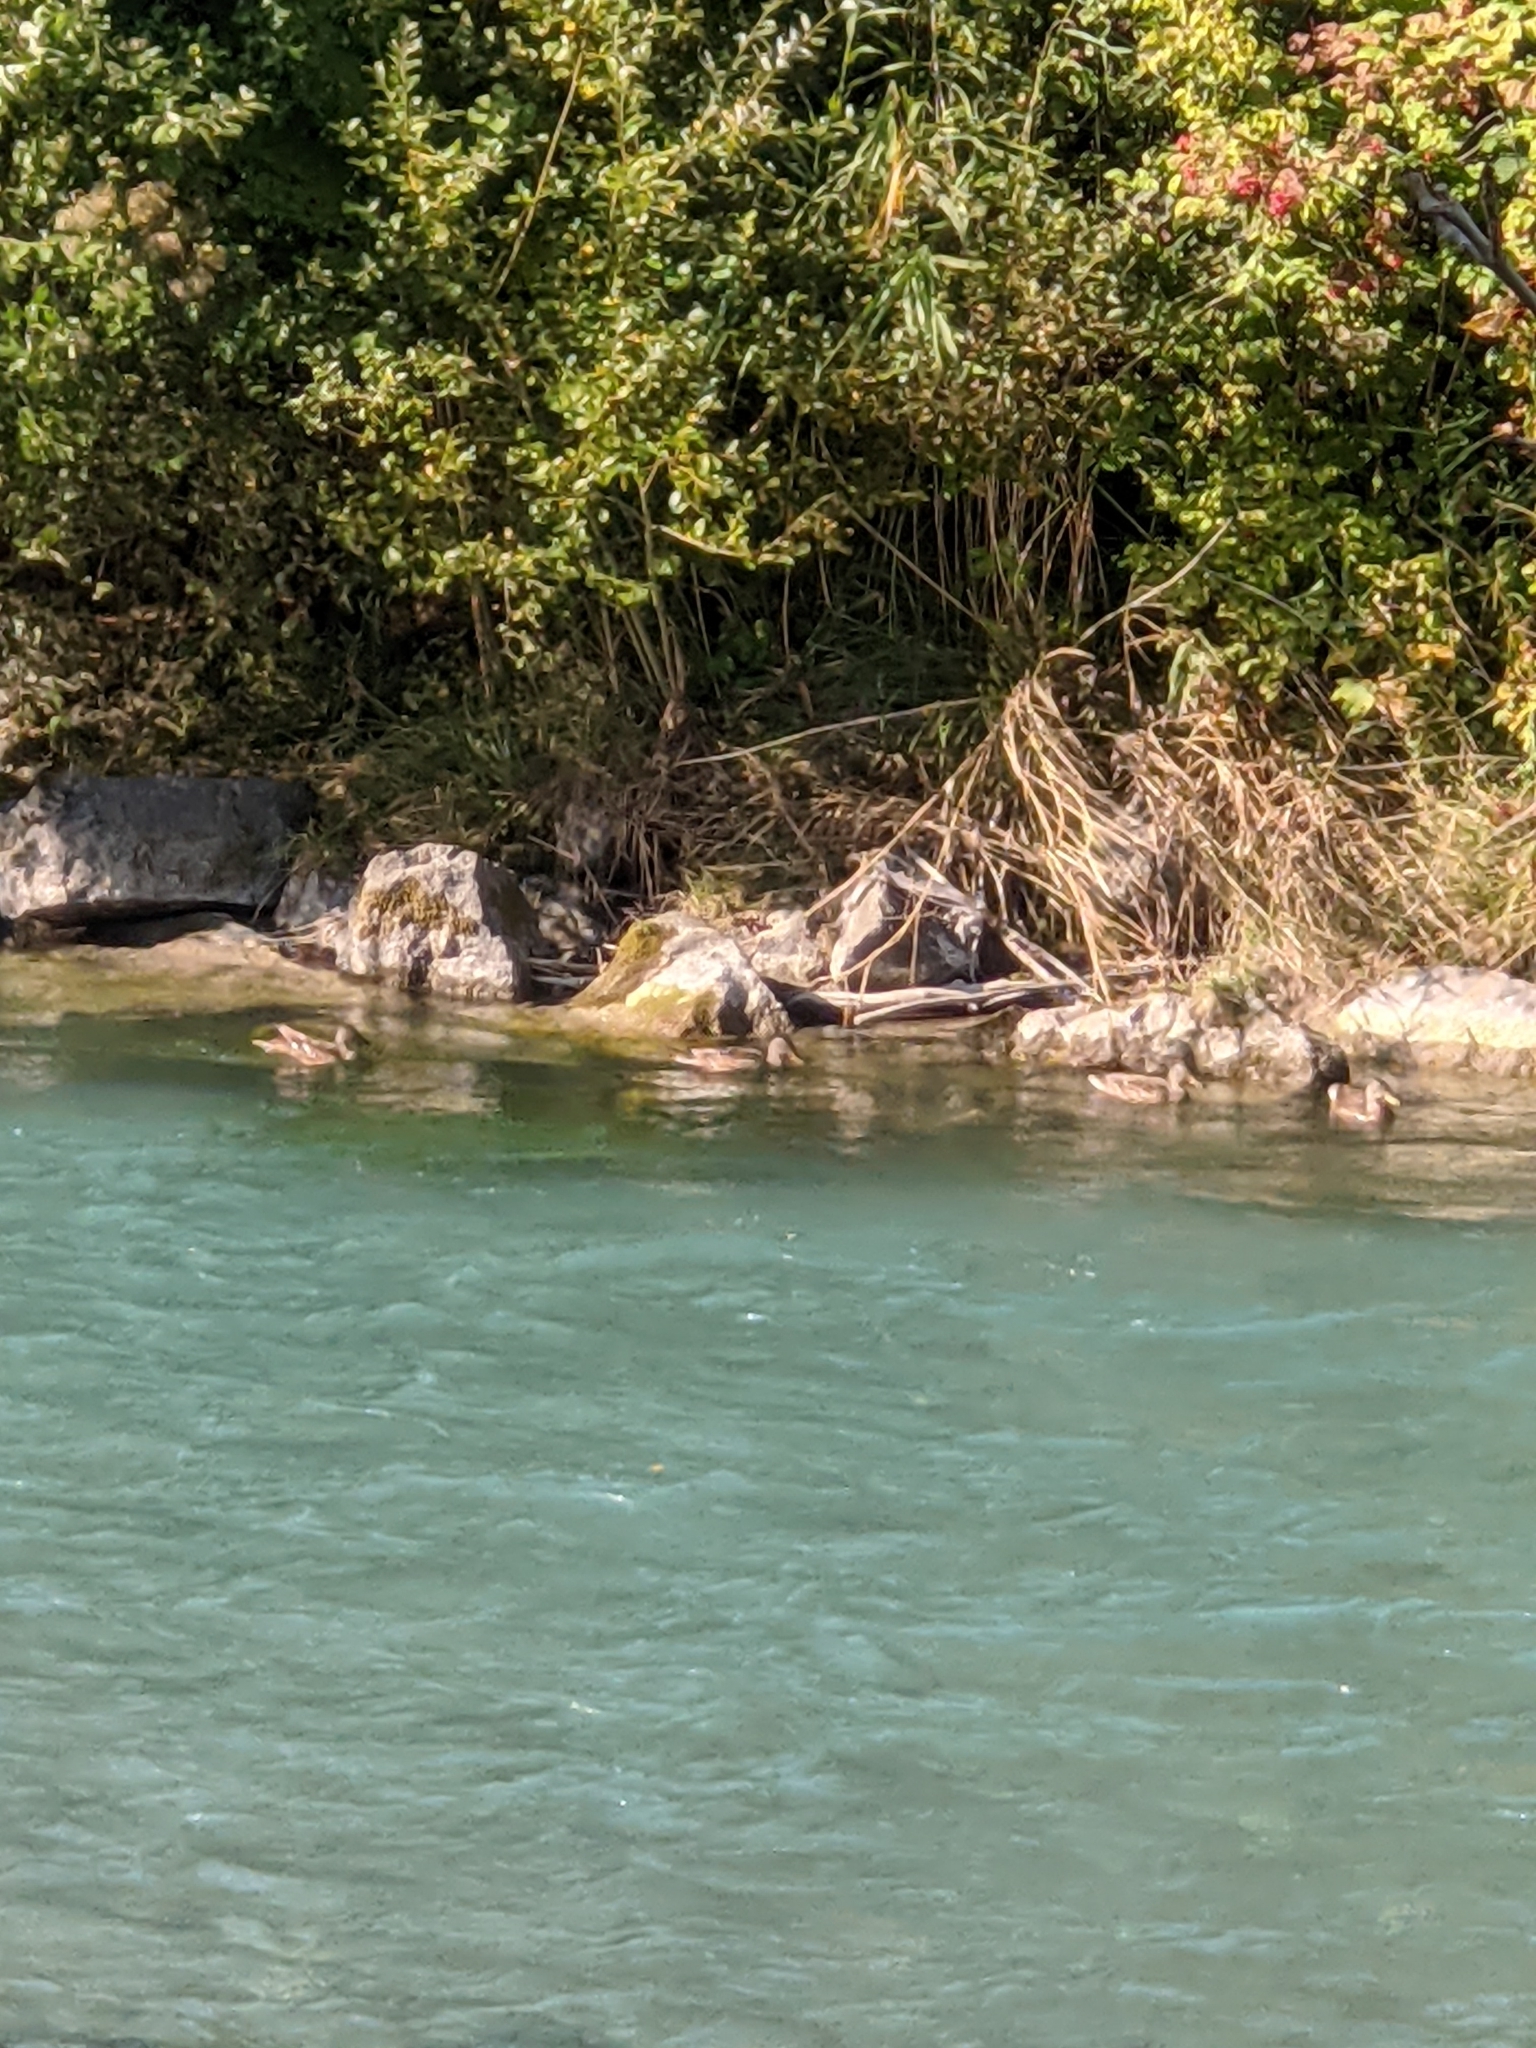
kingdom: Animalia
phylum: Chordata
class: Aves
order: Anseriformes
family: Anatidae
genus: Anas
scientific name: Anas platyrhynchos
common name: Mallard
